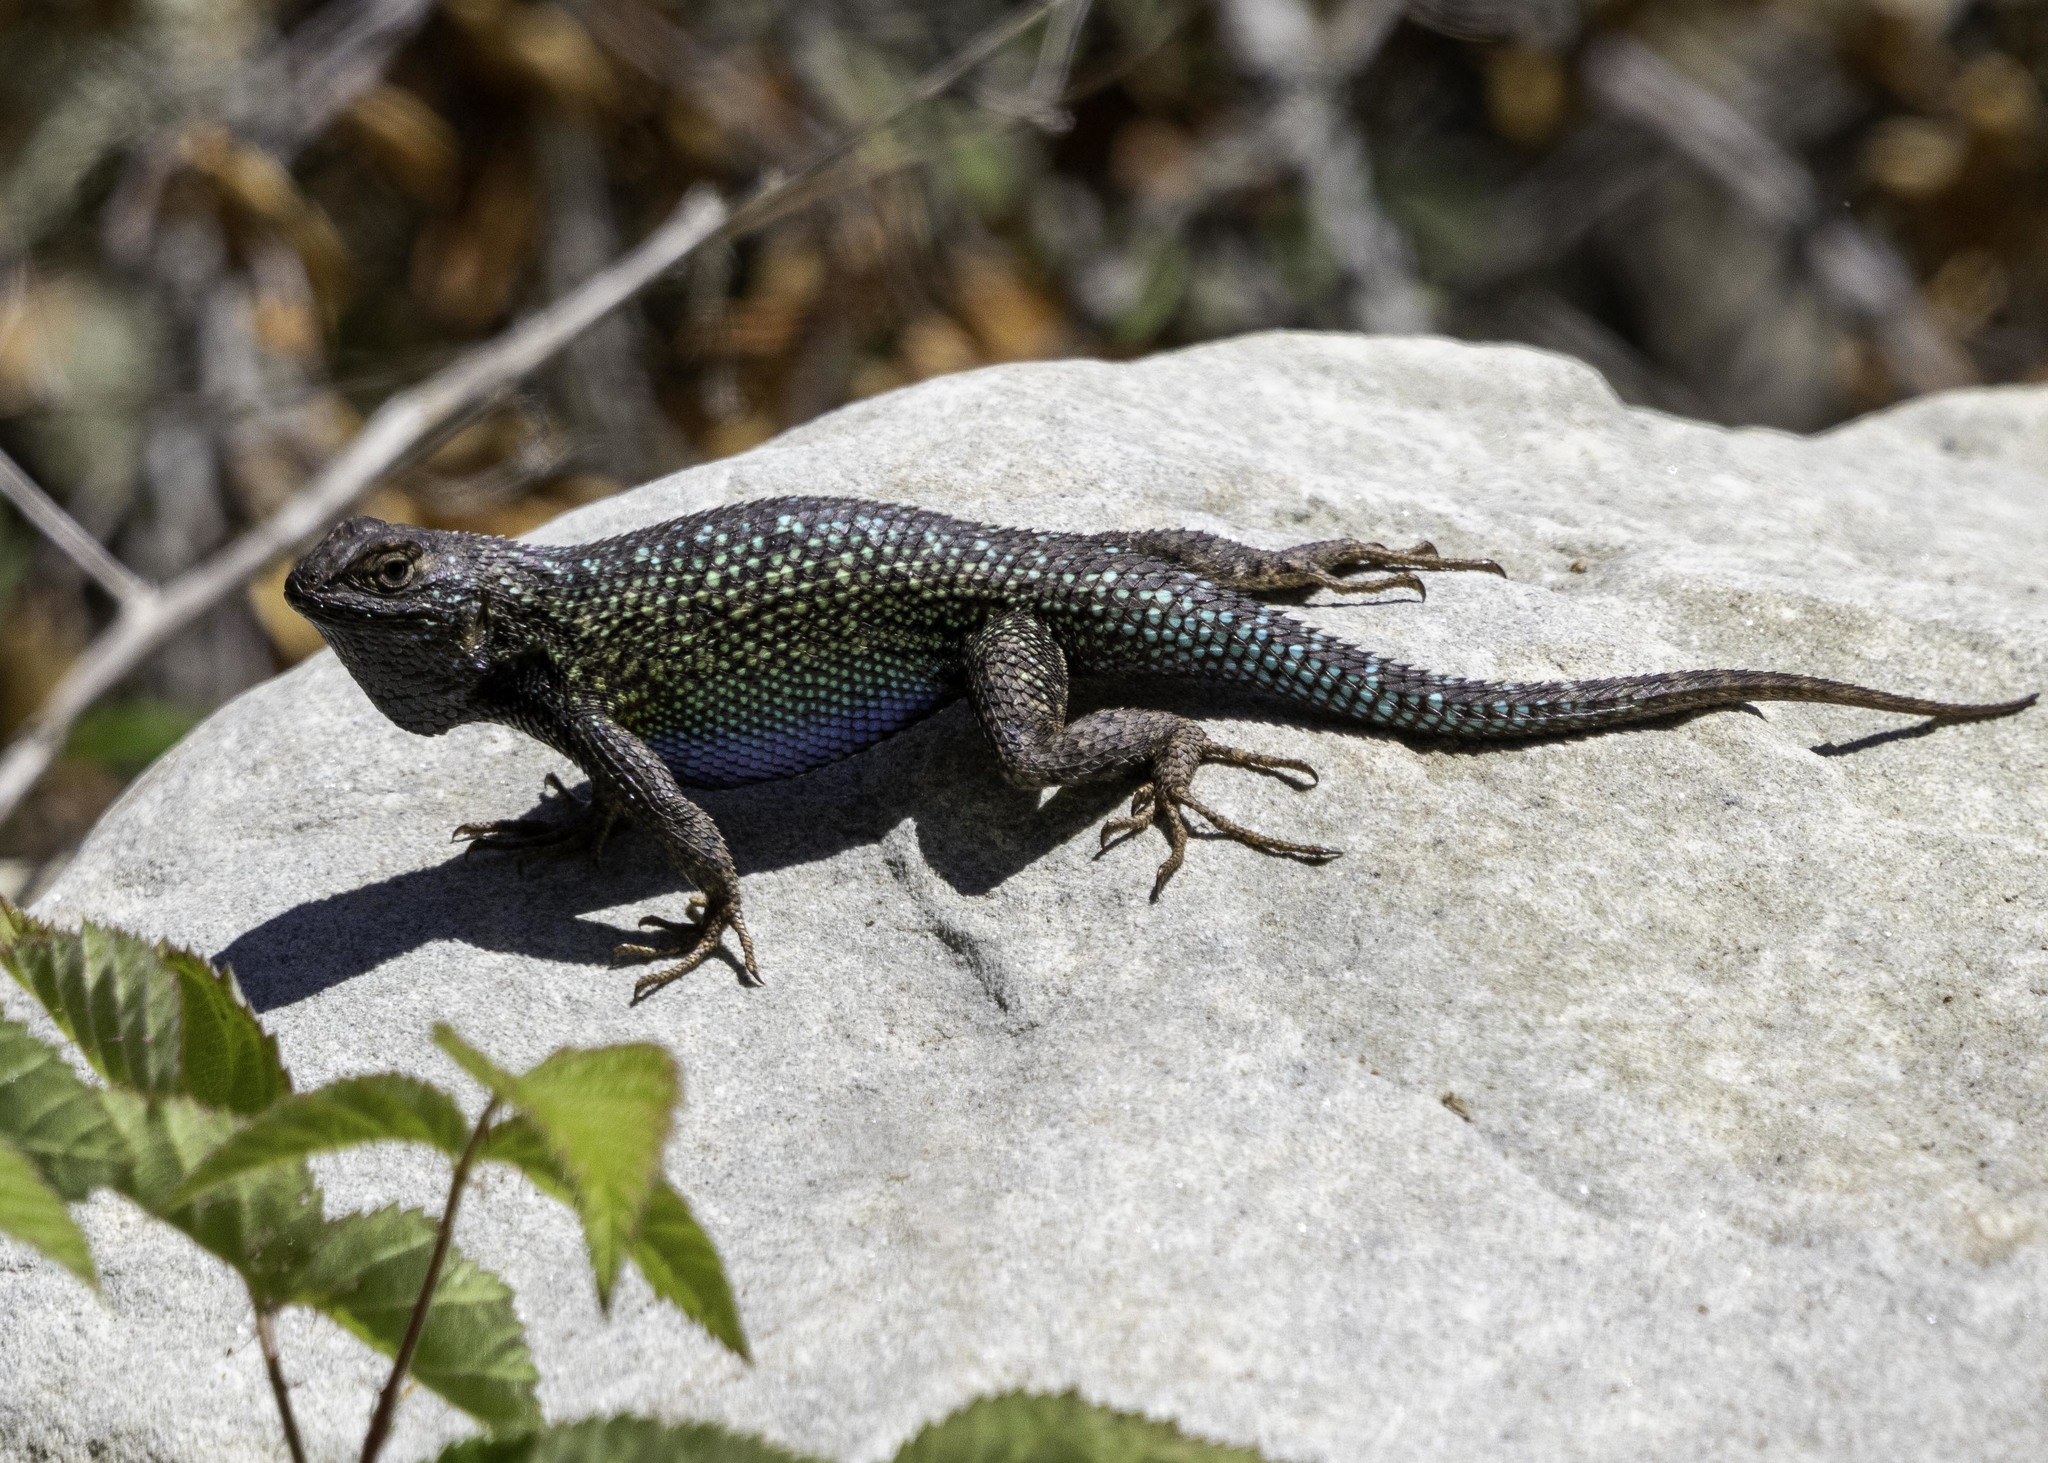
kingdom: Animalia
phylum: Chordata
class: Squamata
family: Phrynosomatidae
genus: Sceloporus
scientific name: Sceloporus occidentalis
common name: Western fence lizard
